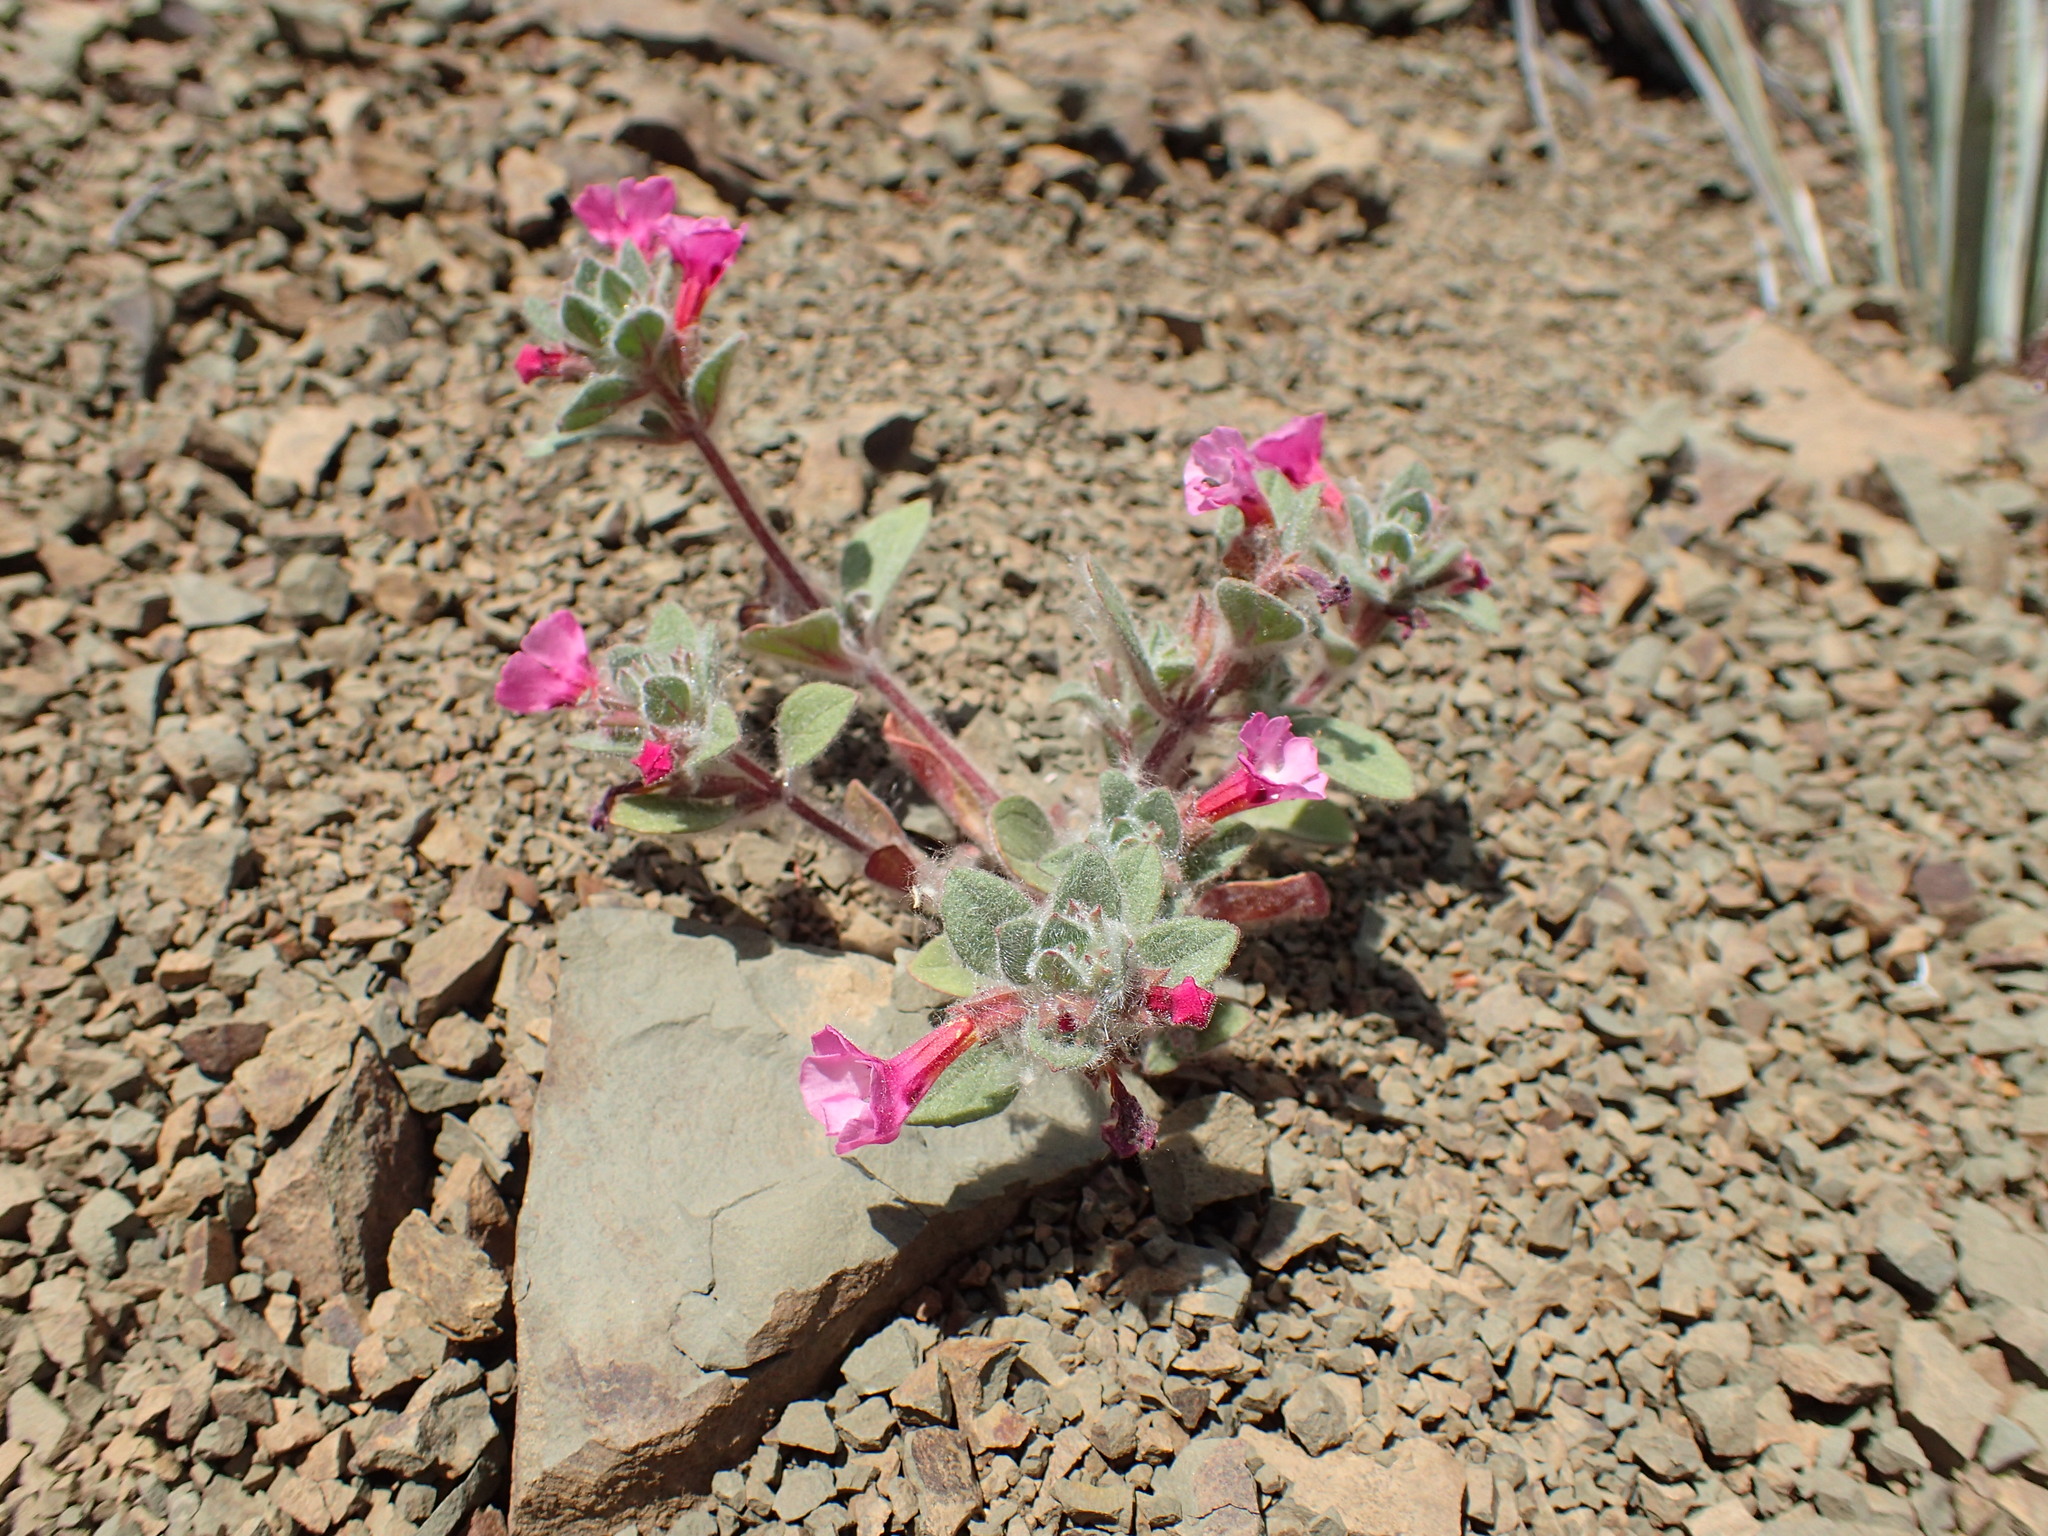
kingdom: Plantae
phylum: Tracheophyta
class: Magnoliopsida
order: Lamiales
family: Phrymaceae
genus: Diplacus
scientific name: Diplacus johnstonii
